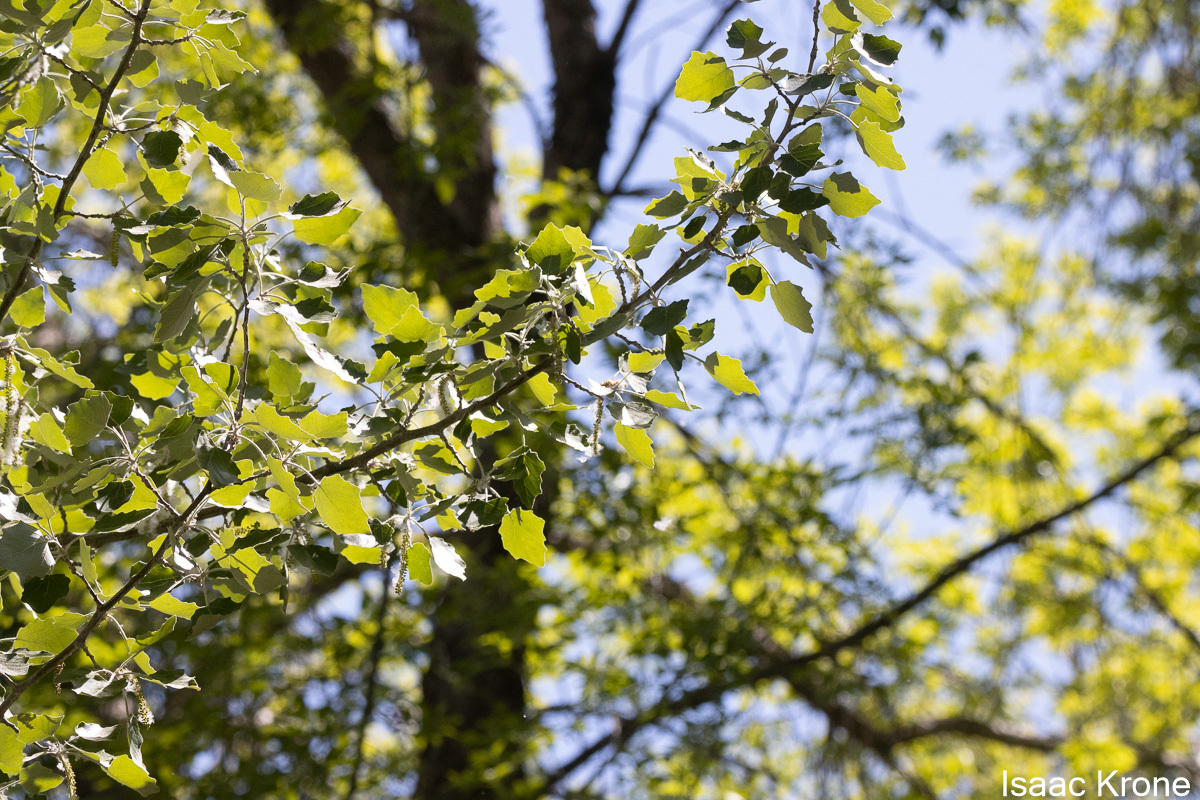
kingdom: Plantae
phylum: Tracheophyta
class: Magnoliopsida
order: Malpighiales
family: Salicaceae
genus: Populus
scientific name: Populus alba
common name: White poplar
